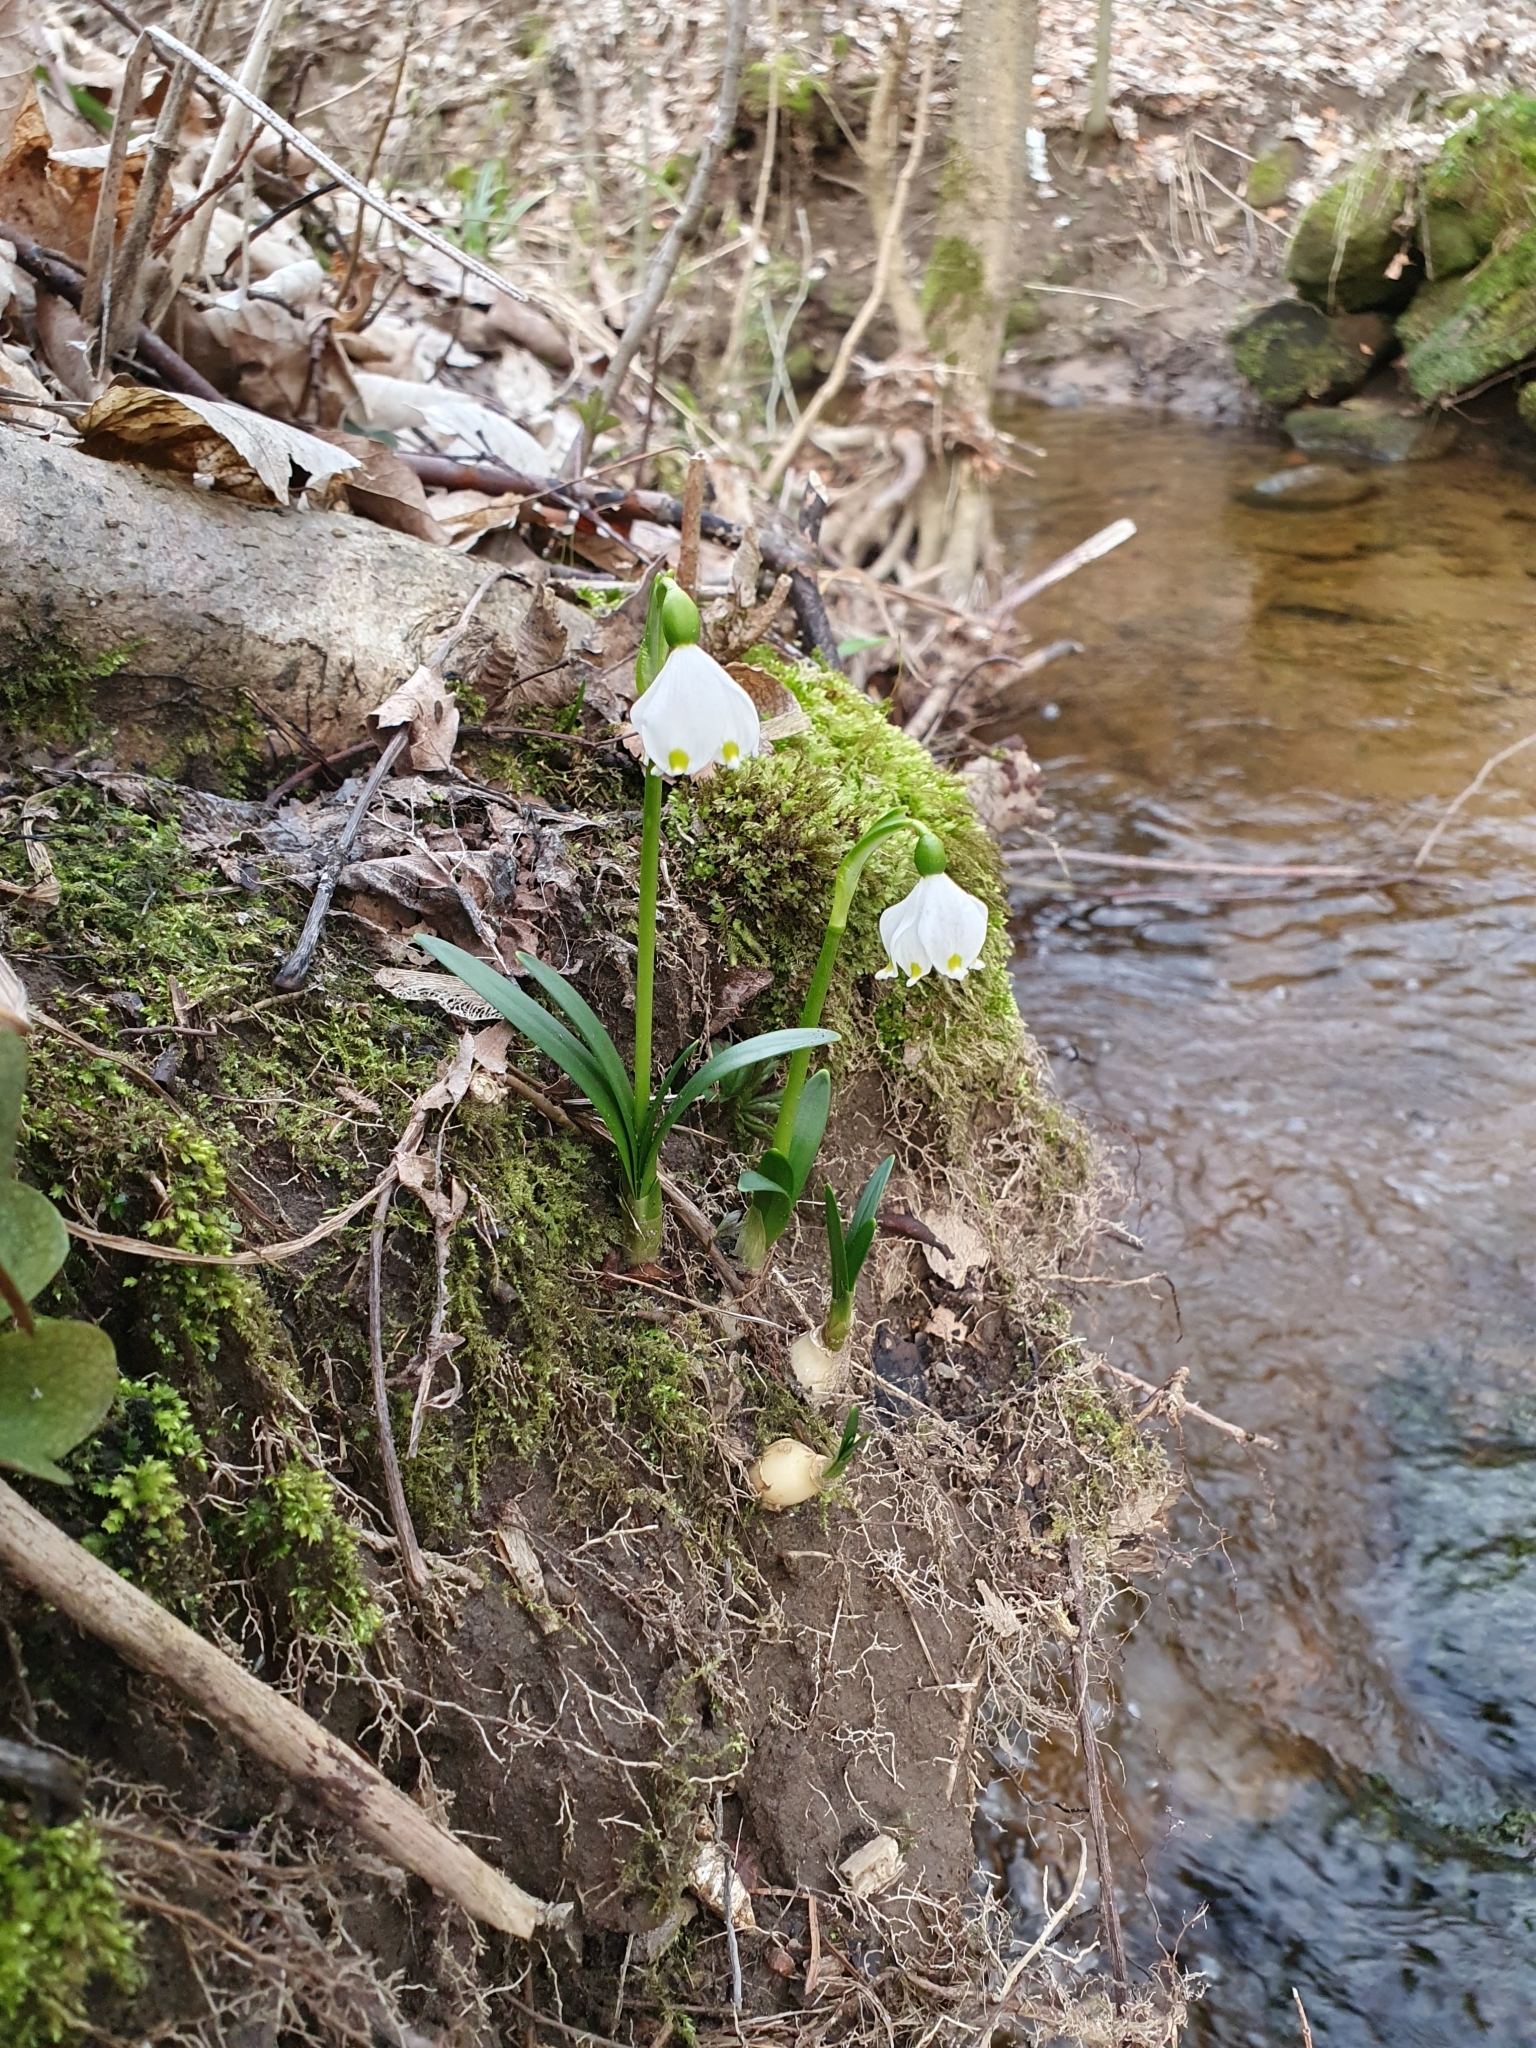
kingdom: Plantae
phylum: Tracheophyta
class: Liliopsida
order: Asparagales
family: Amaryllidaceae
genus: Leucojum
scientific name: Leucojum vernum
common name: Spring snowflake
